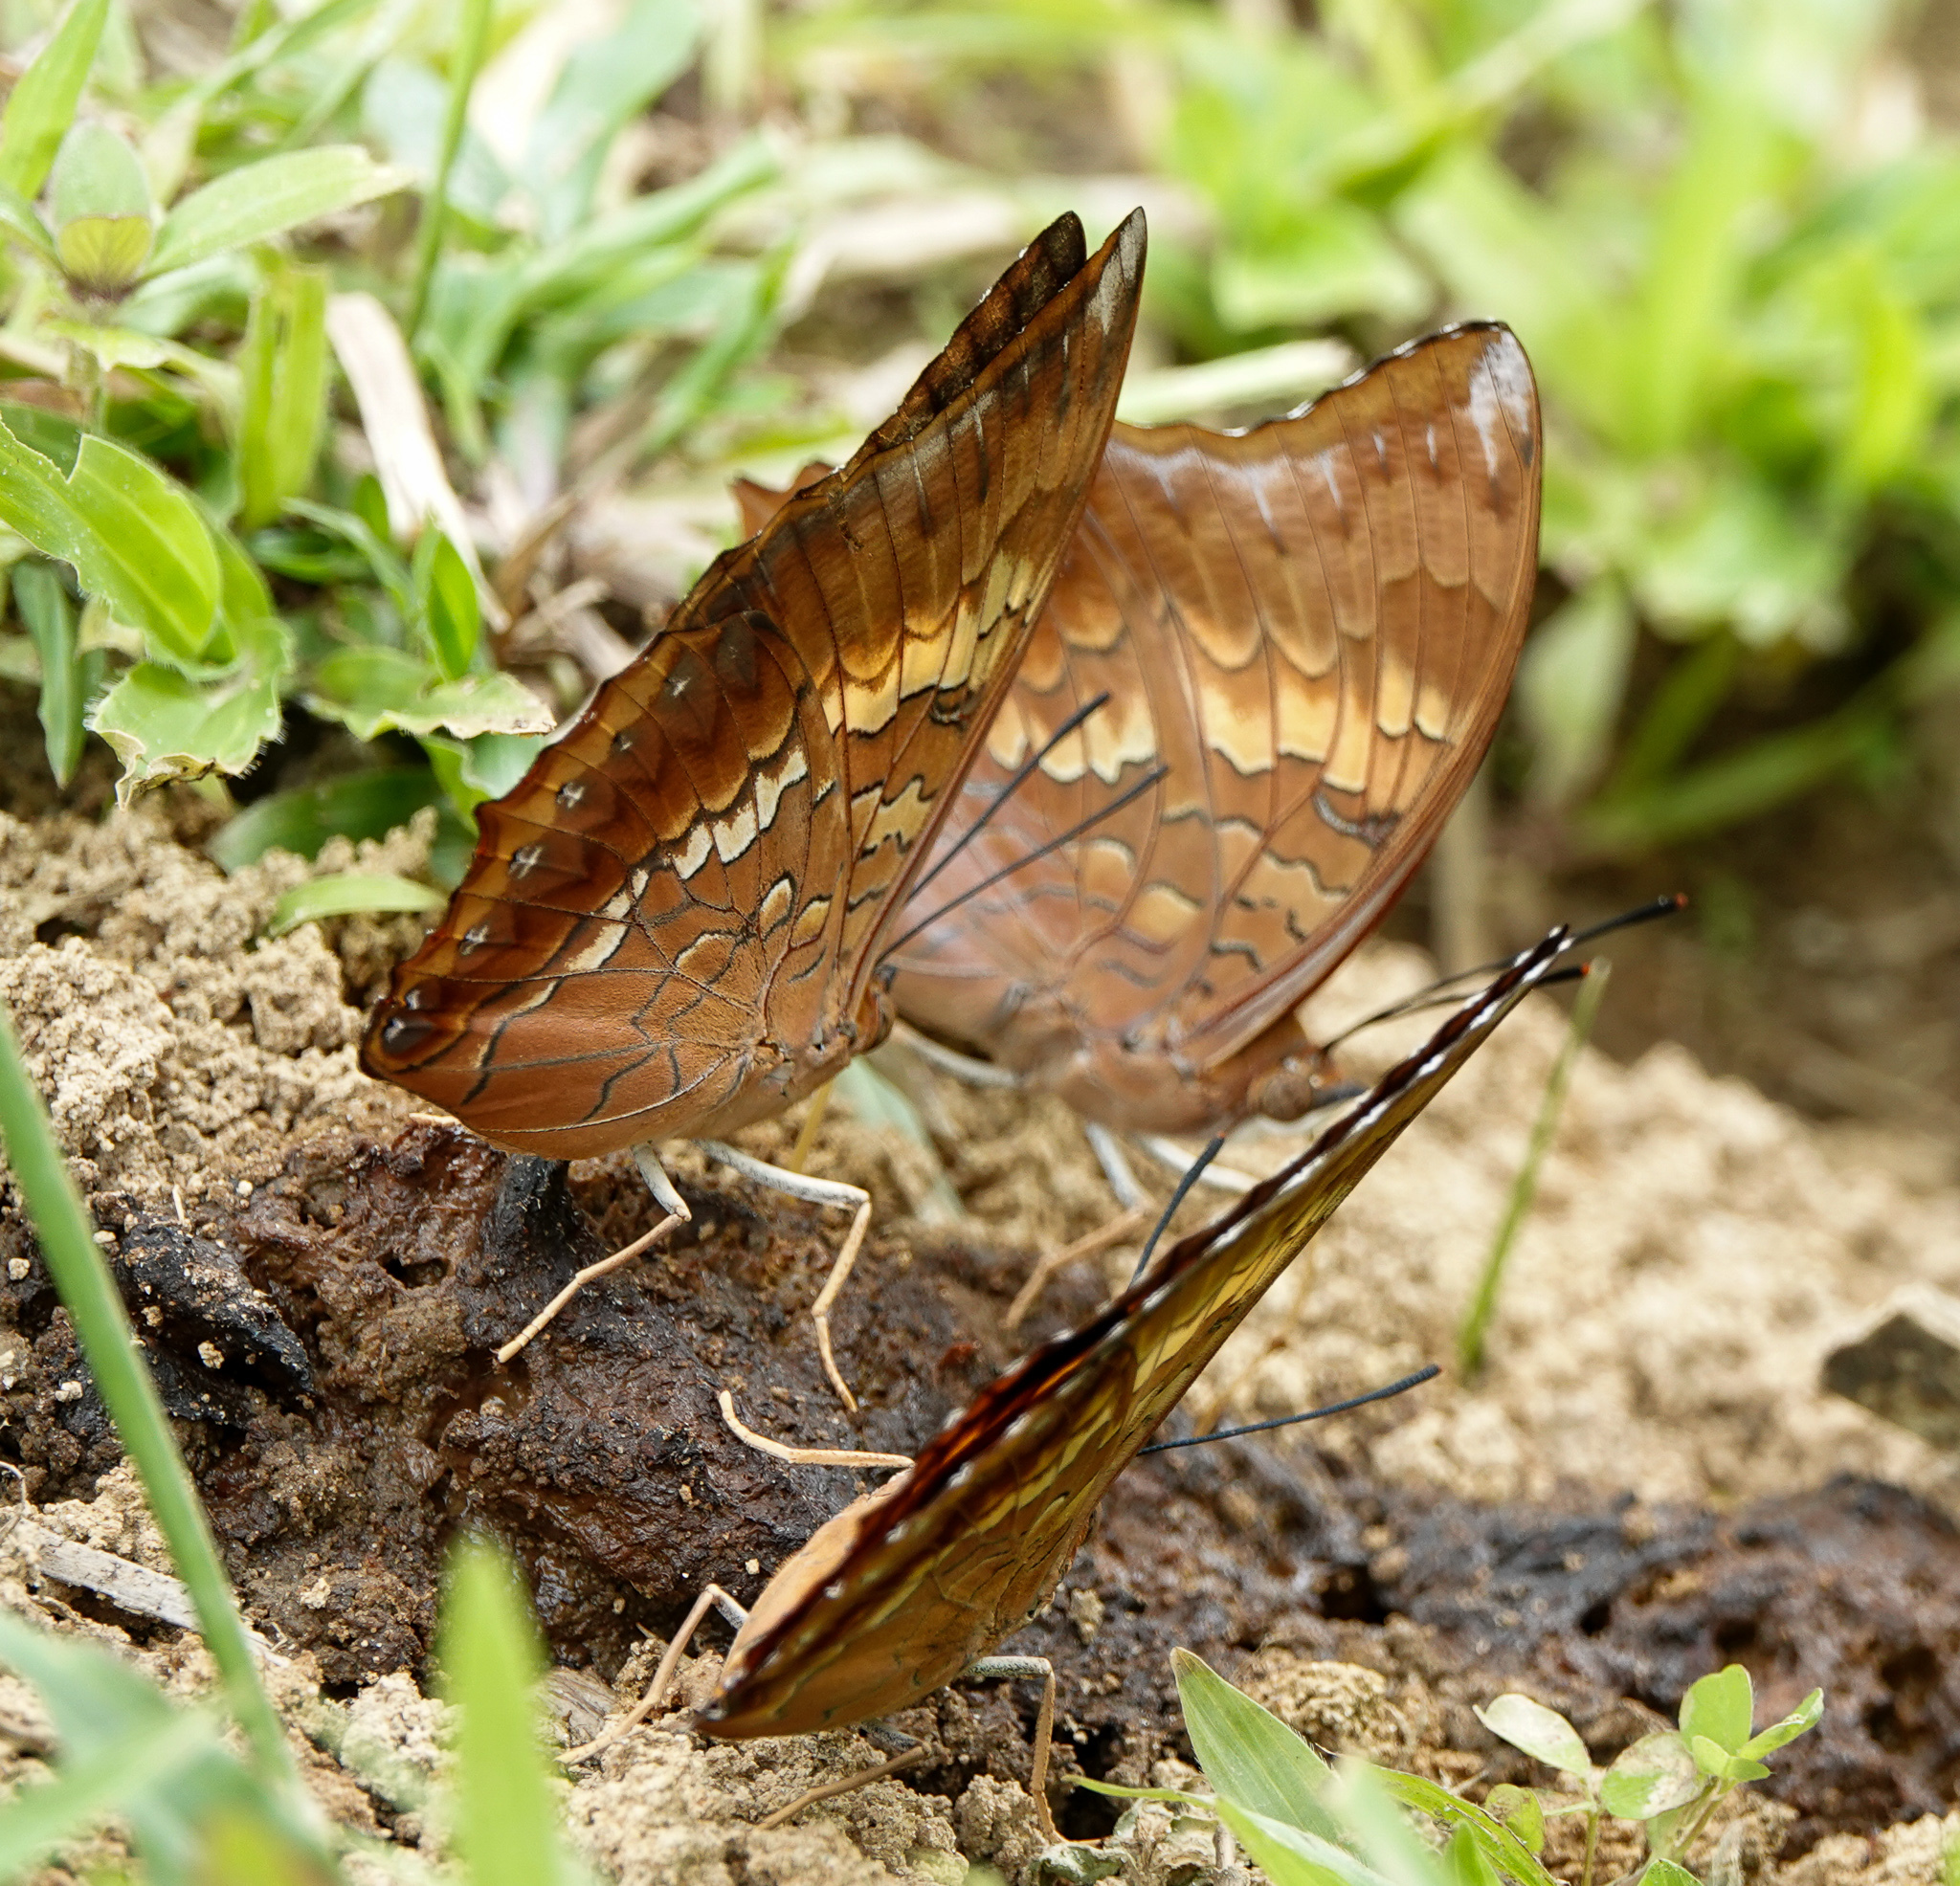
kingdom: Animalia
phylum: Arthropoda
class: Insecta
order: Lepidoptera
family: Nymphalidae
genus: Charaxes
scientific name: Charaxes bernardus
